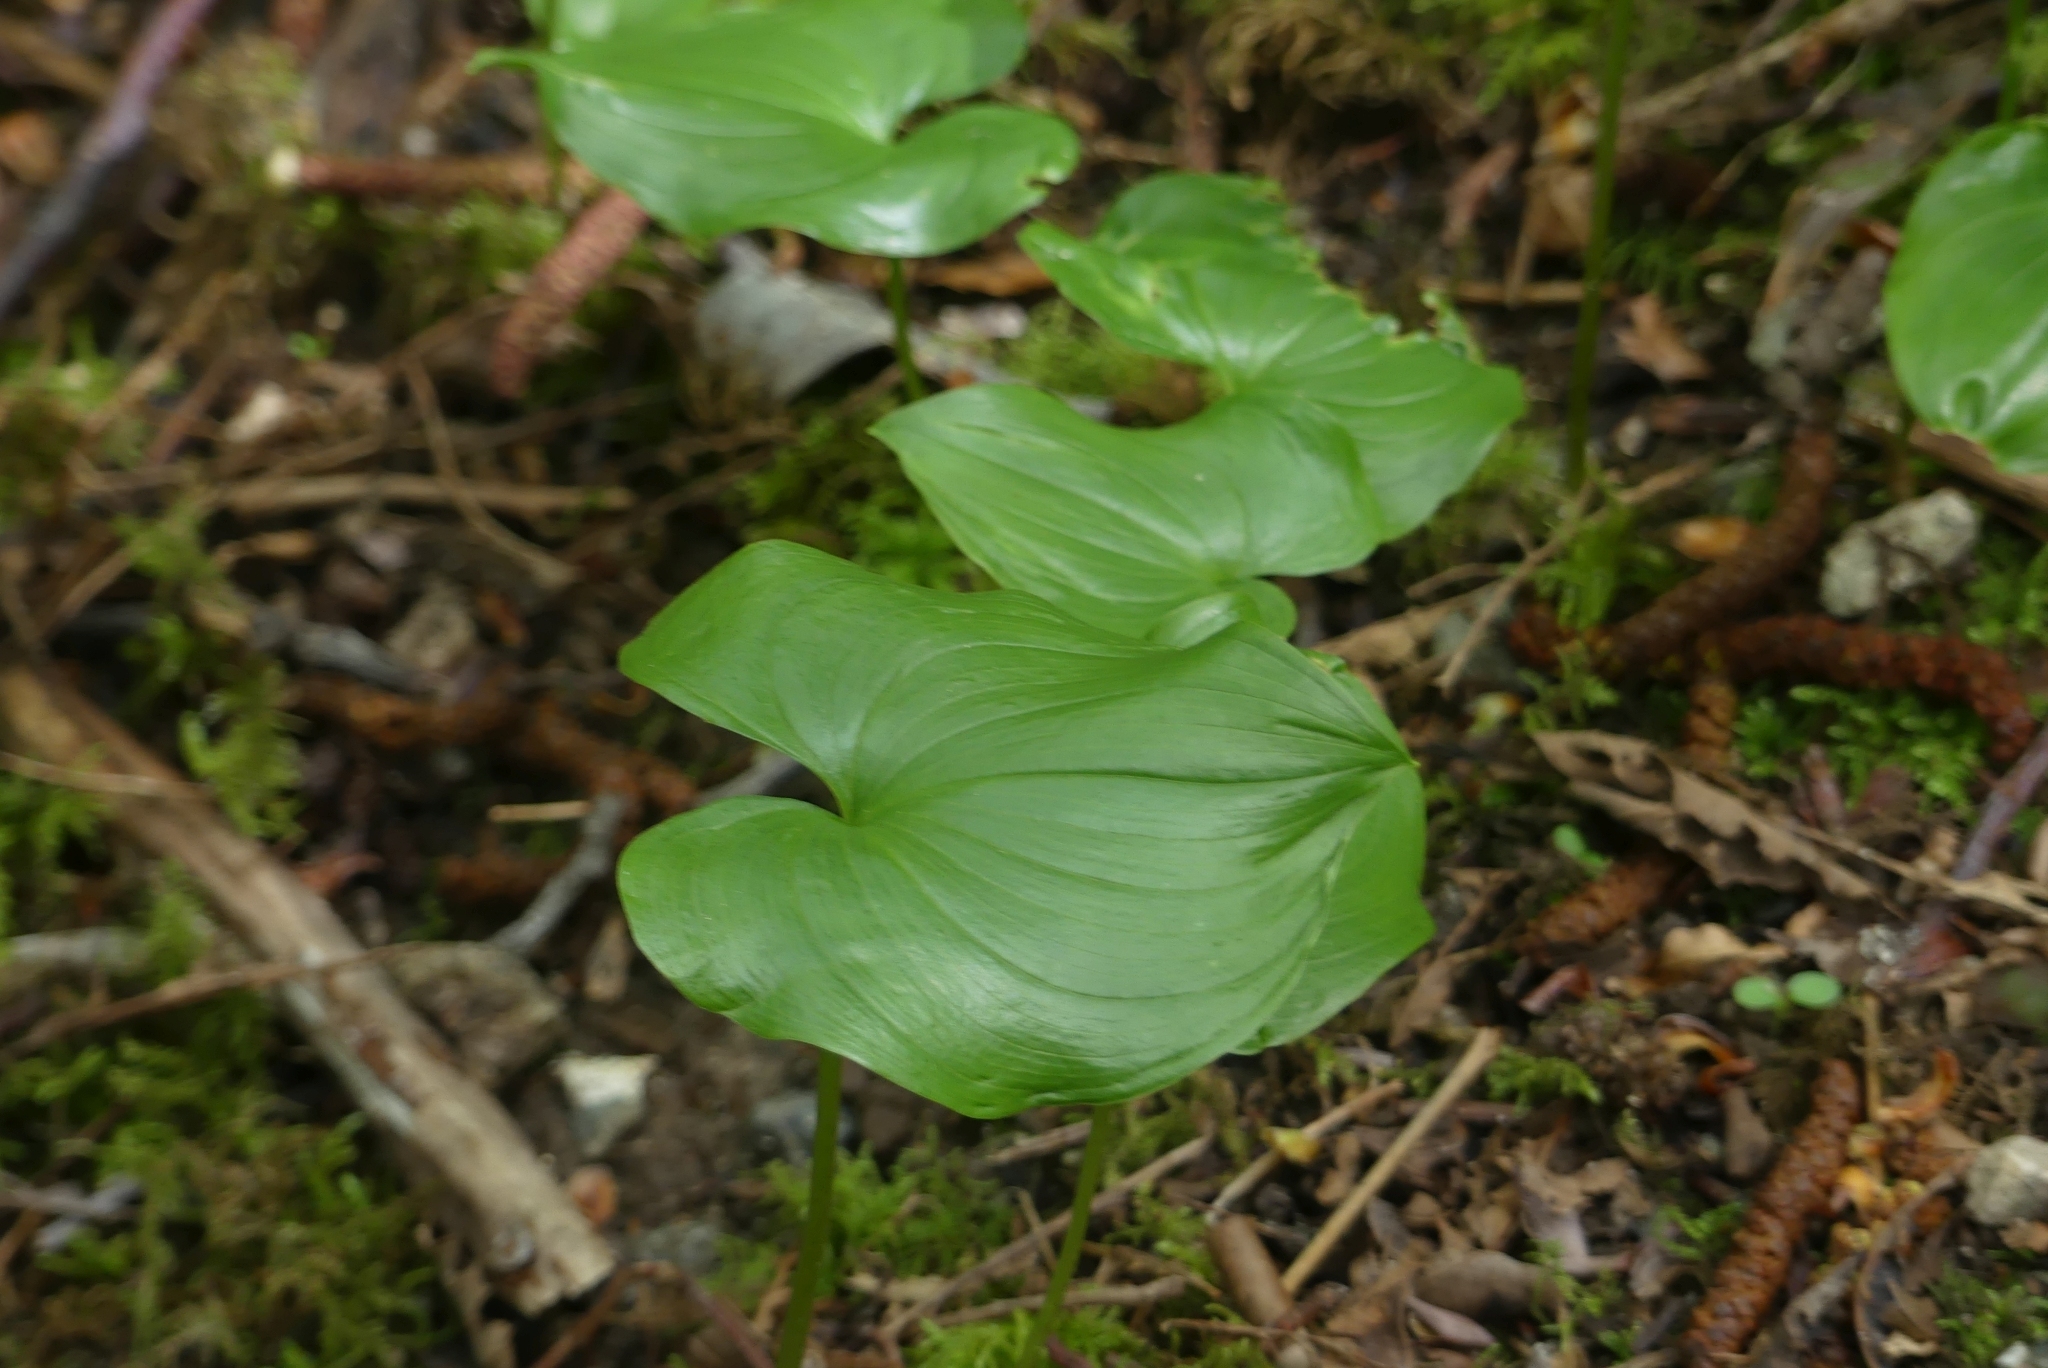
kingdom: Plantae
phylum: Tracheophyta
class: Liliopsida
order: Asparagales
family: Asparagaceae
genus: Maianthemum
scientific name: Maianthemum dilatatum
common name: False lily-of-the-valley
